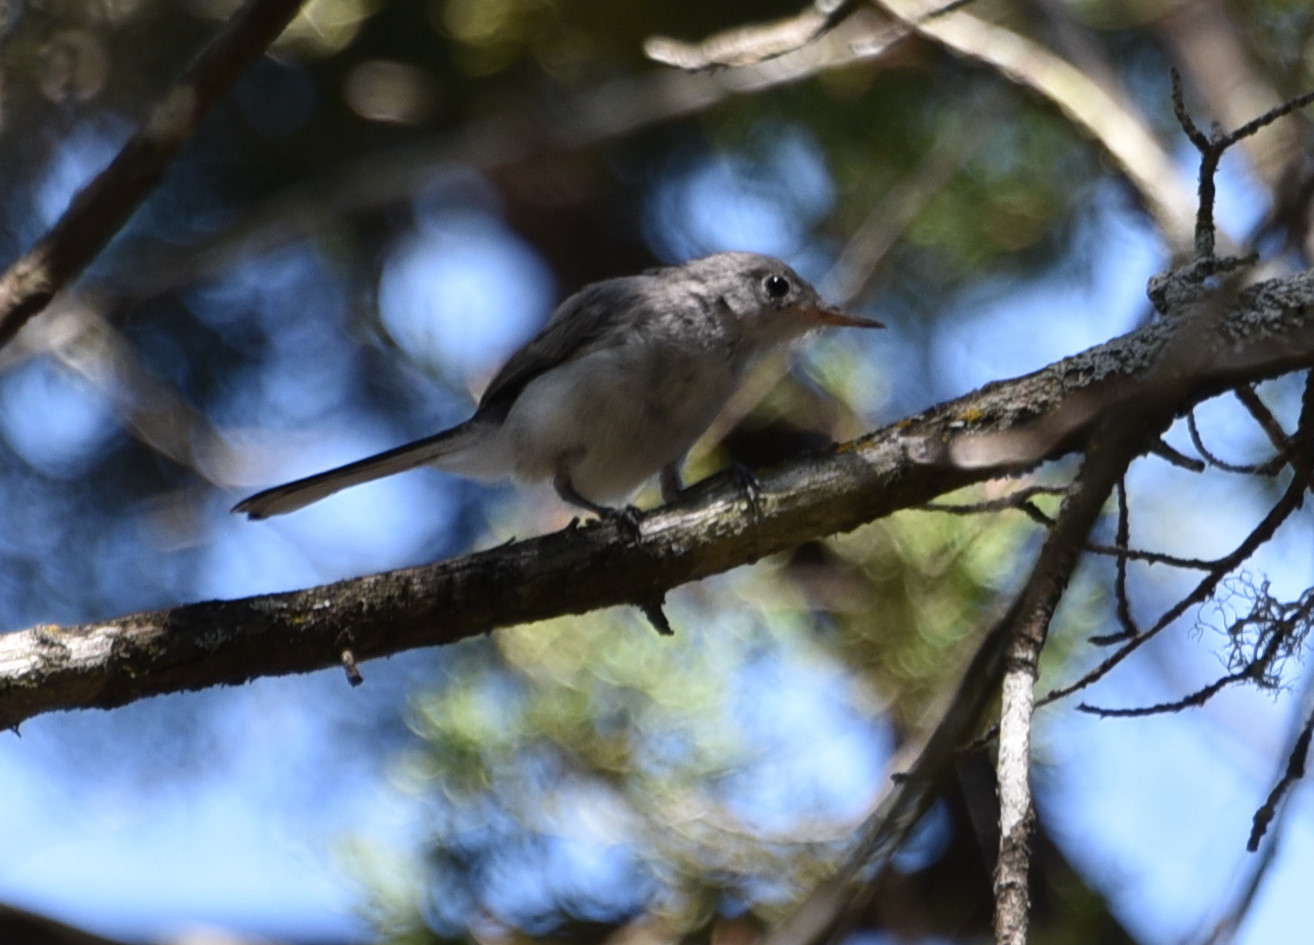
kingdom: Animalia
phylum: Chordata
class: Aves
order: Passeriformes
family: Polioptilidae
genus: Polioptila
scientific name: Polioptila caerulea
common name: Blue-gray gnatcatcher
